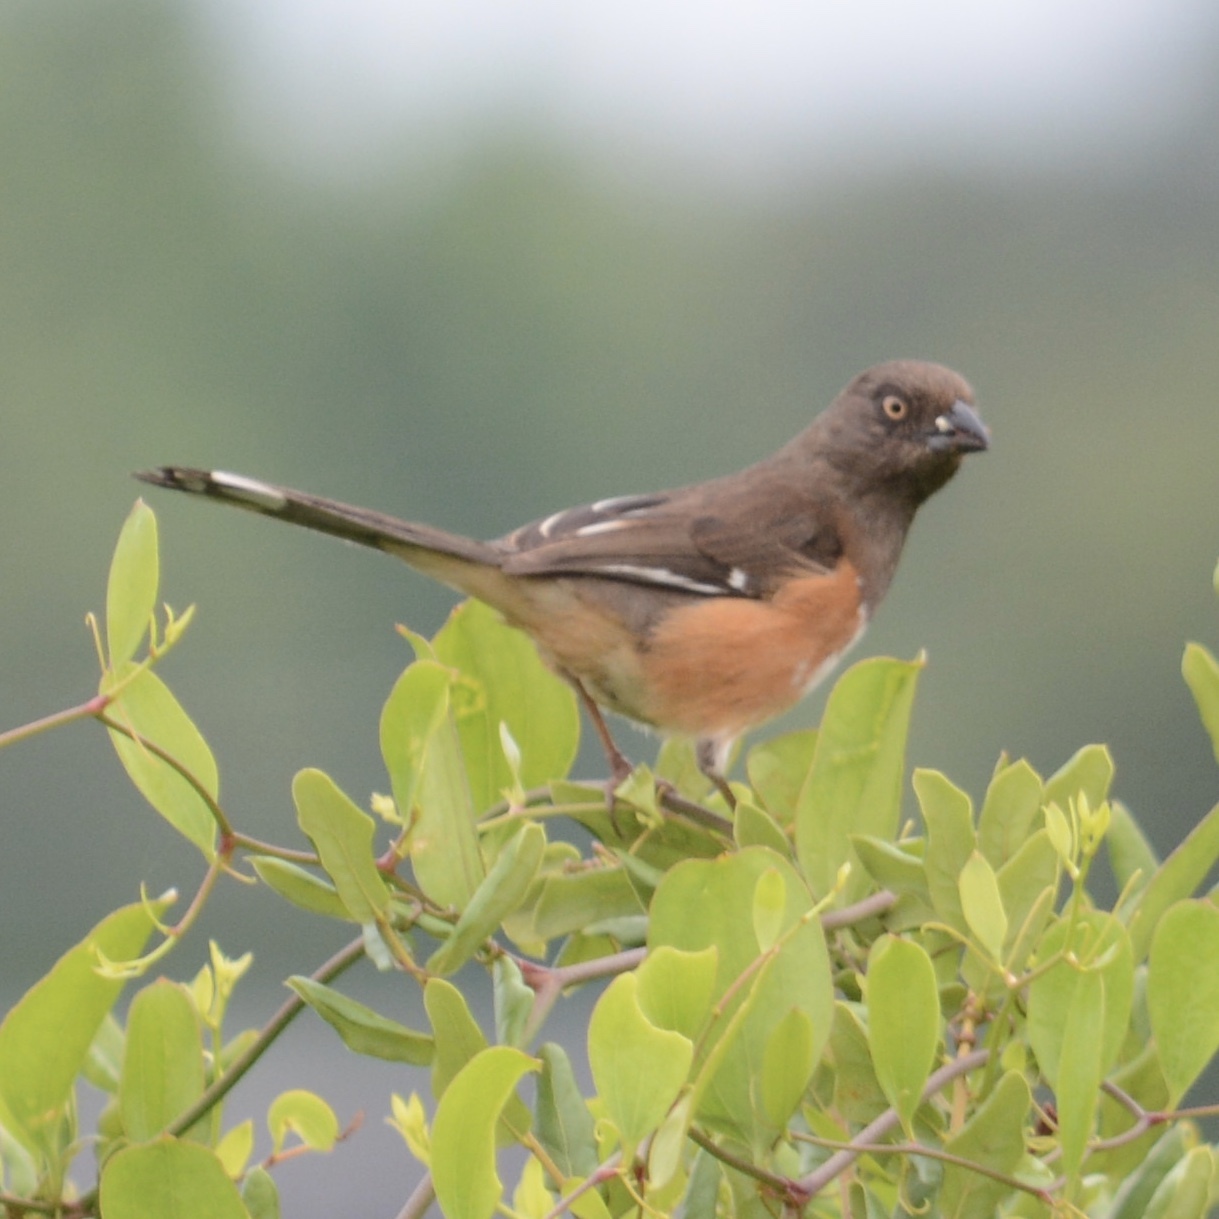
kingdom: Animalia
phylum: Chordata
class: Aves
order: Passeriformes
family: Passerellidae
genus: Pipilo
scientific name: Pipilo erythrophthalmus
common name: Eastern towhee
